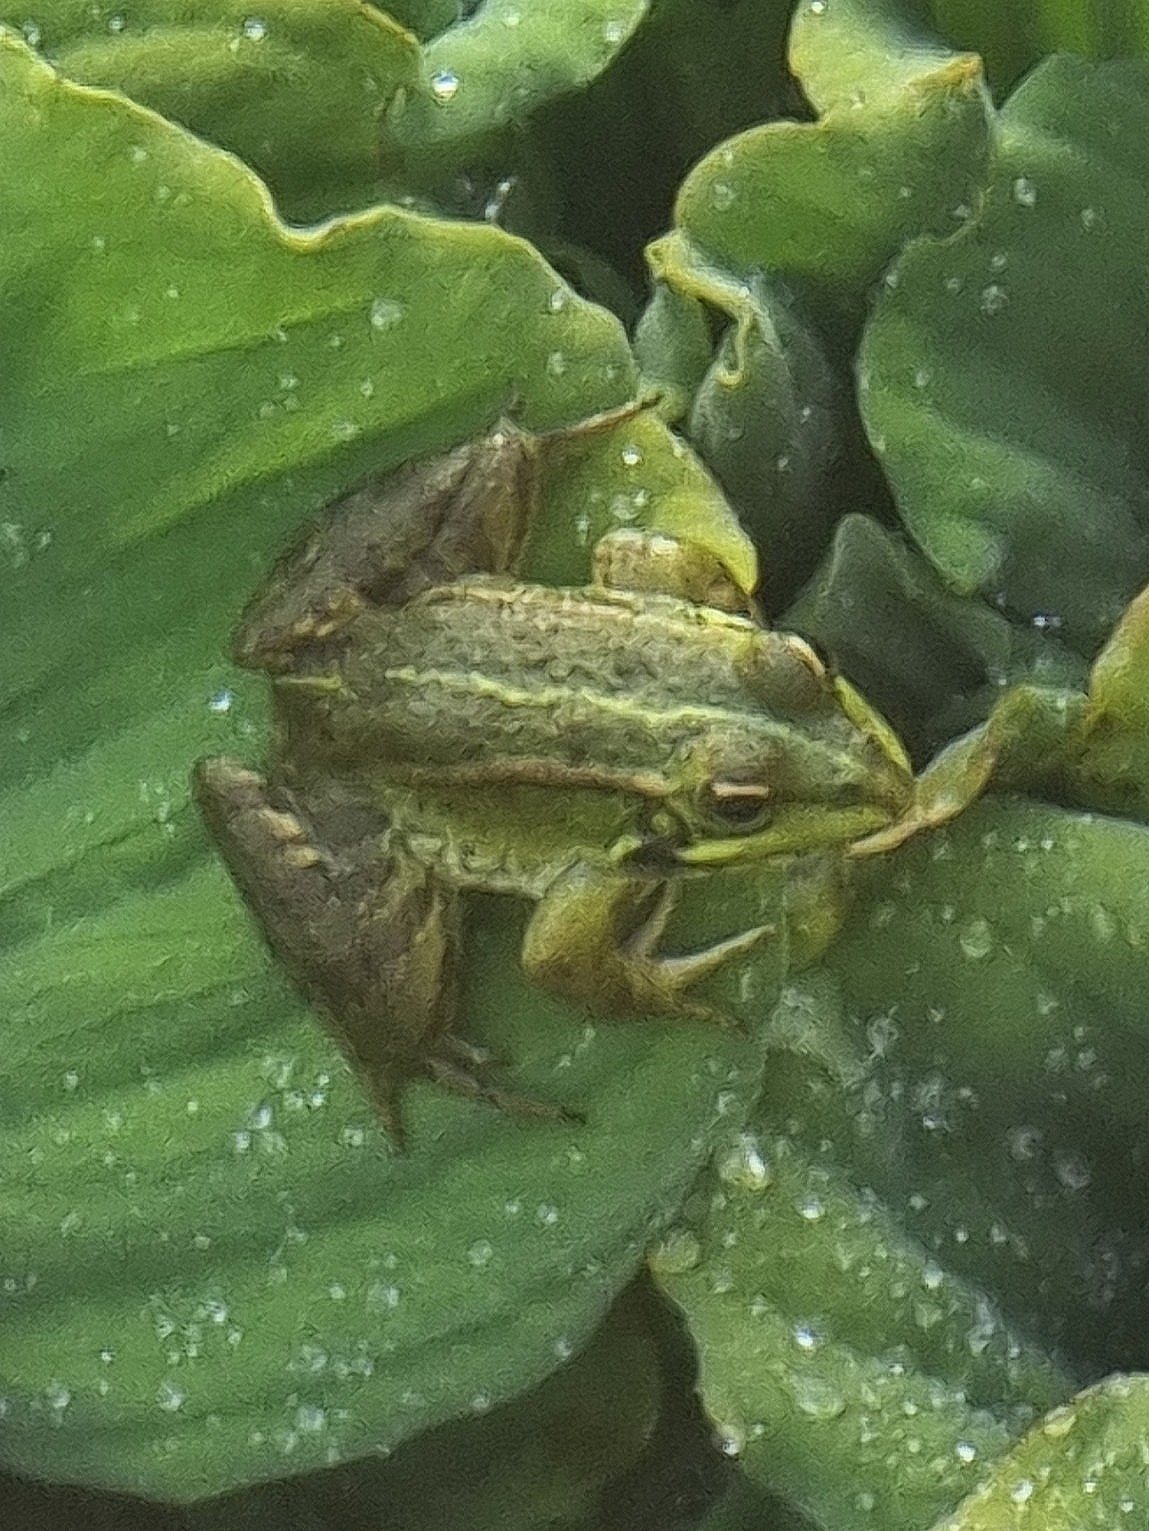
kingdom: Animalia
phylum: Chordata
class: Amphibia
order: Anura
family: Ranidae
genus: Pelophylax
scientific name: Pelophylax perezi
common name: Perez's frog
